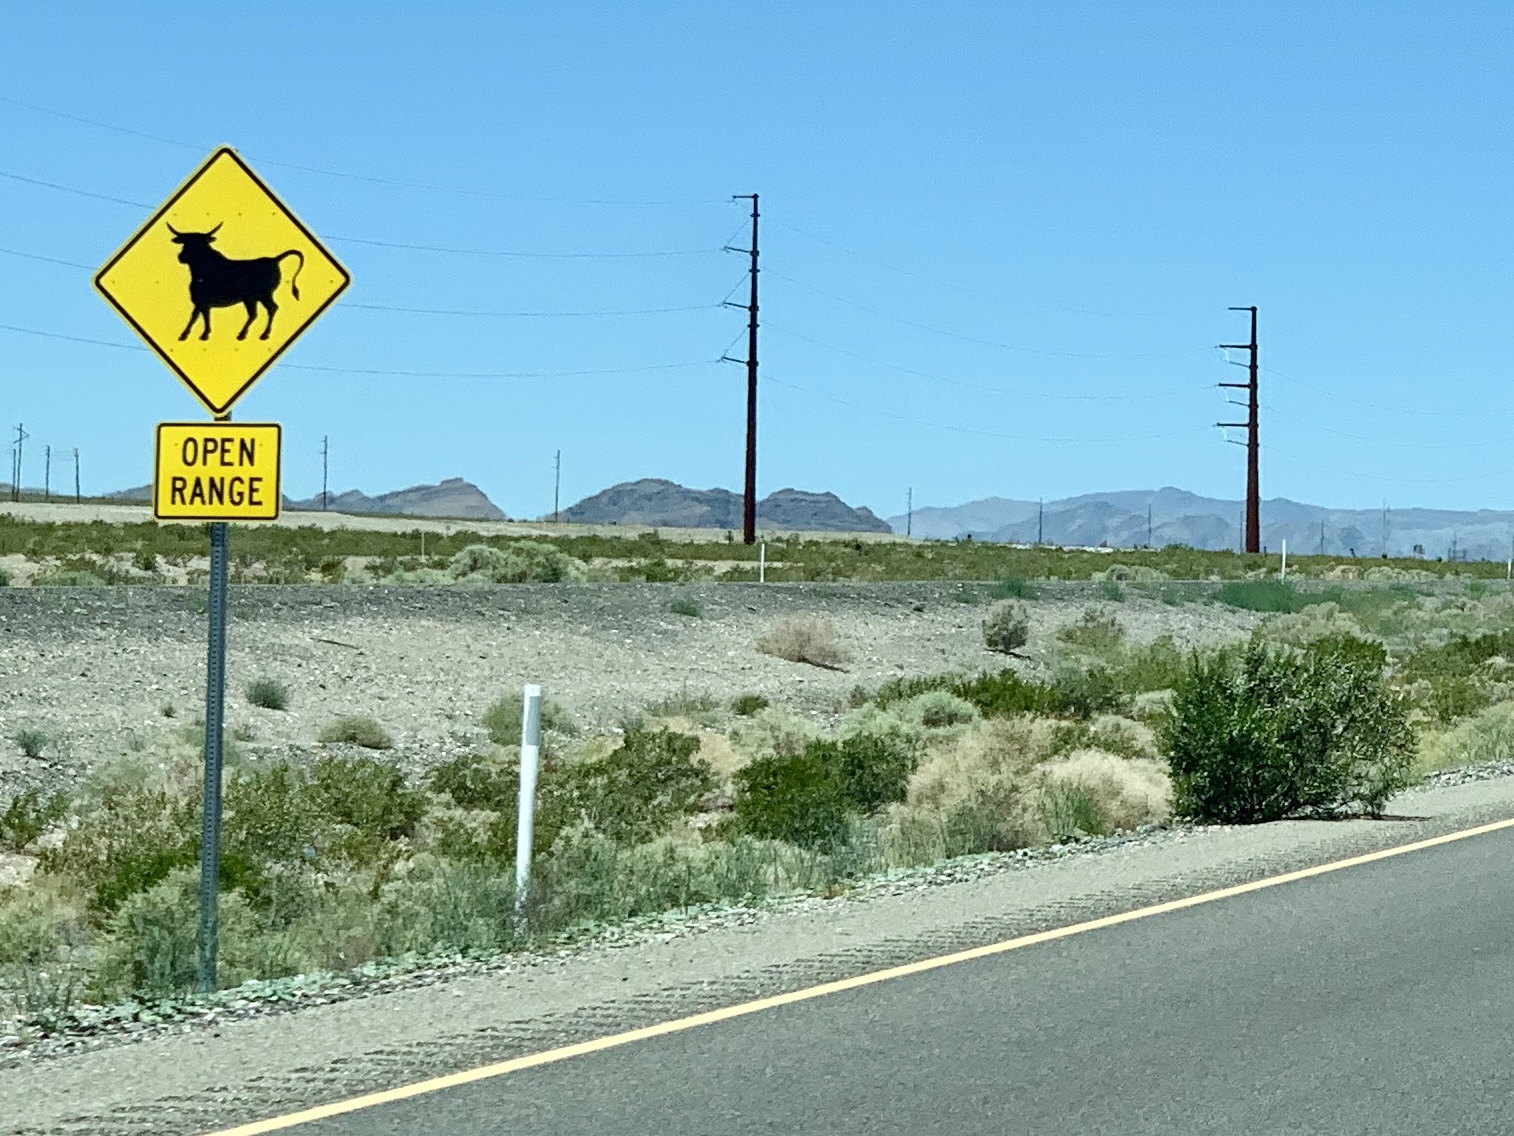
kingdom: Plantae
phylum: Tracheophyta
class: Magnoliopsida
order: Zygophyllales
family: Zygophyllaceae
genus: Larrea
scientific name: Larrea tridentata
